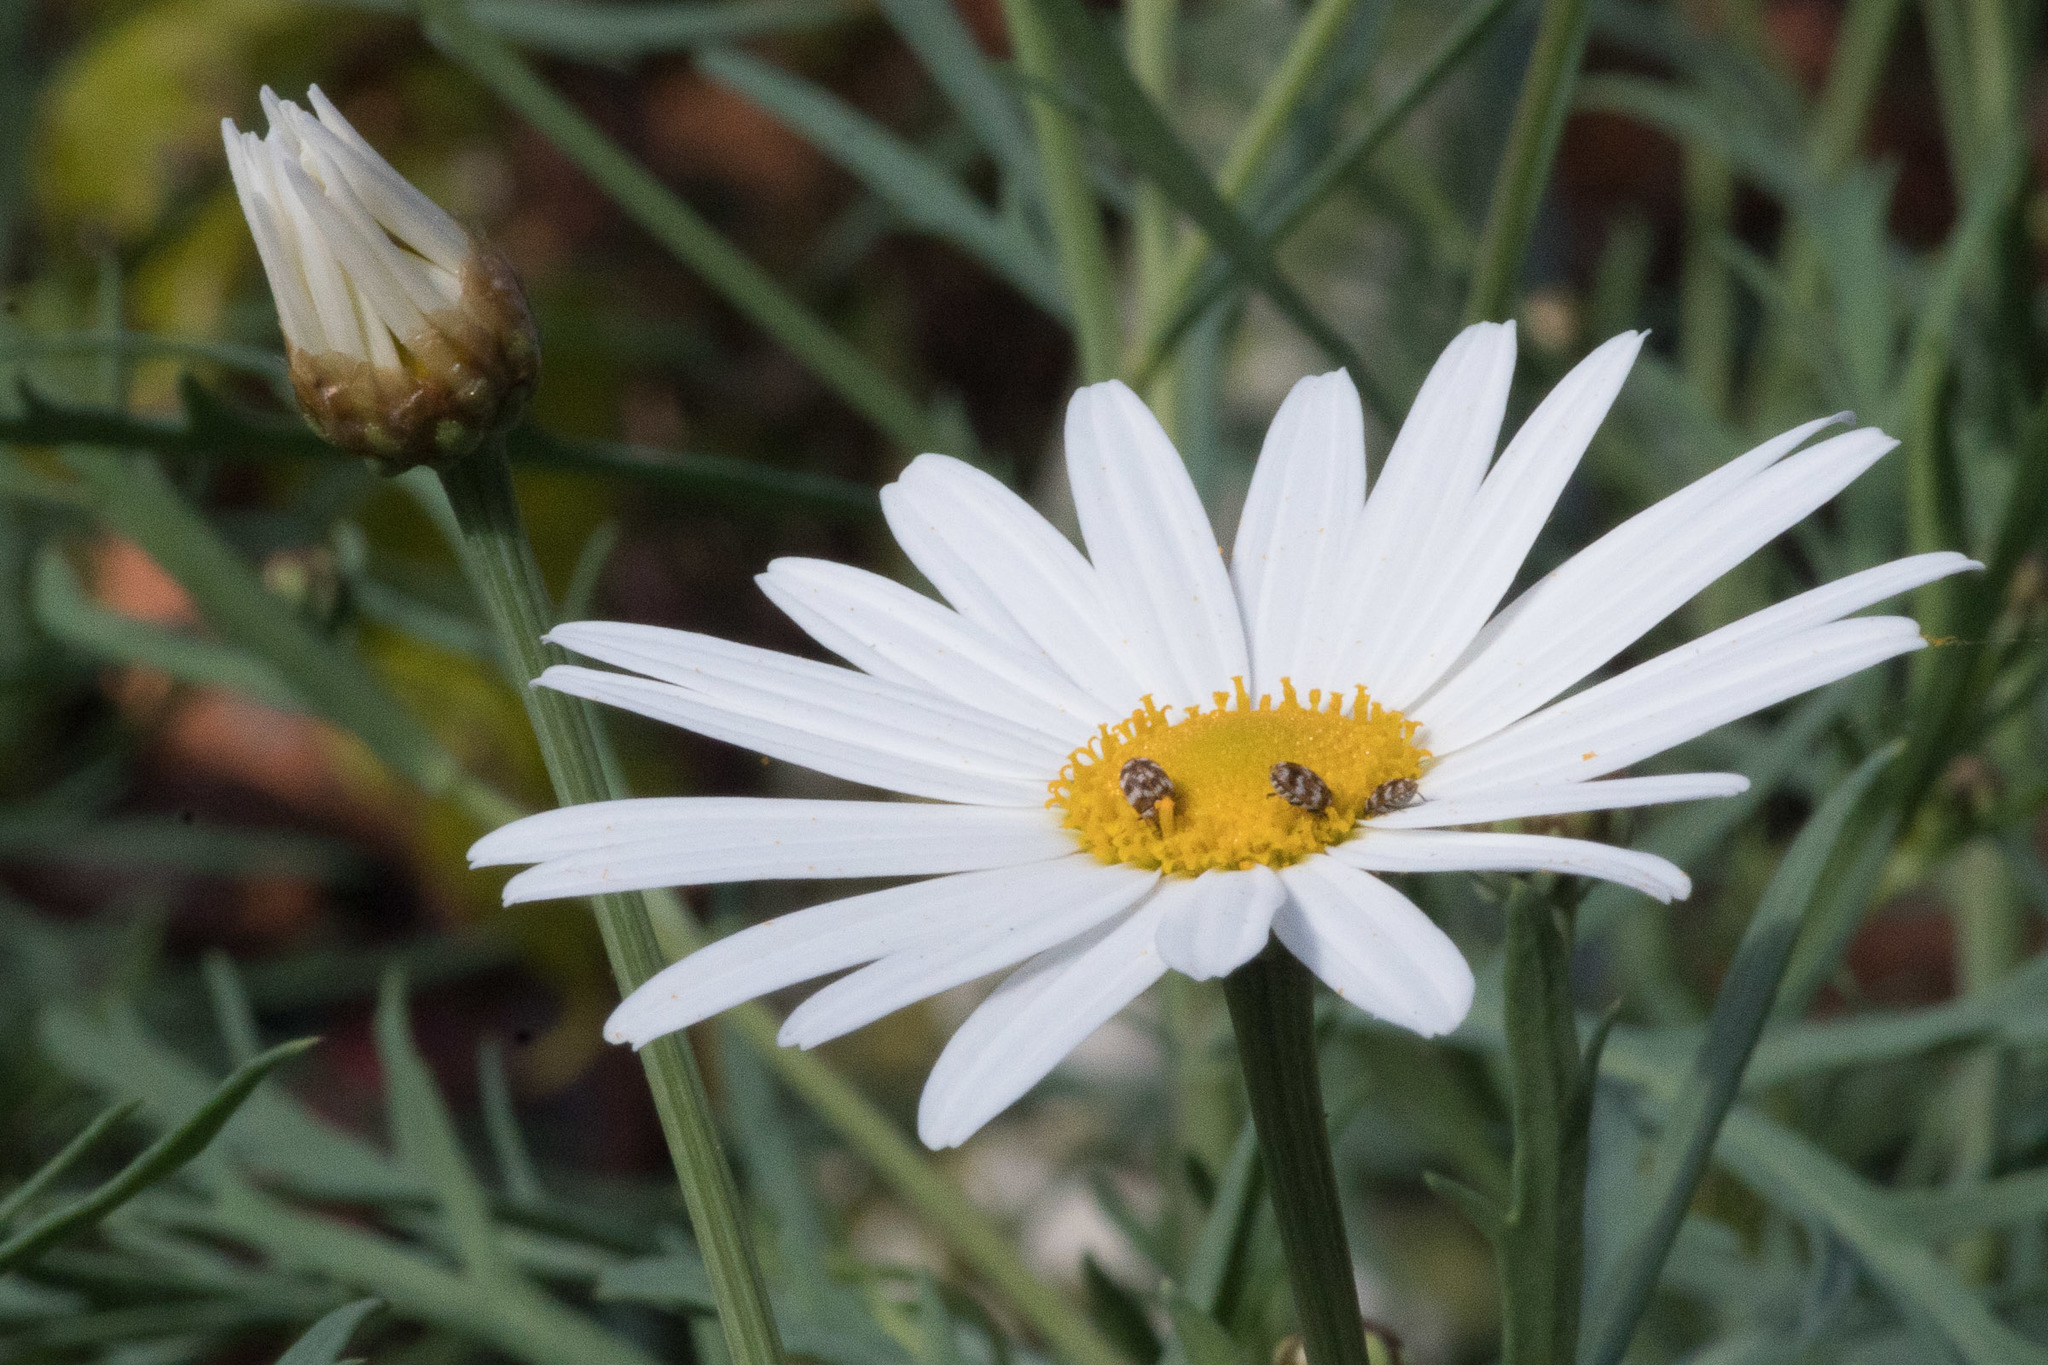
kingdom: Animalia
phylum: Arthropoda
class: Insecta
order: Coleoptera
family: Dermestidae
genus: Anthrenus
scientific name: Anthrenus verbasci
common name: Varied carpet beetle
